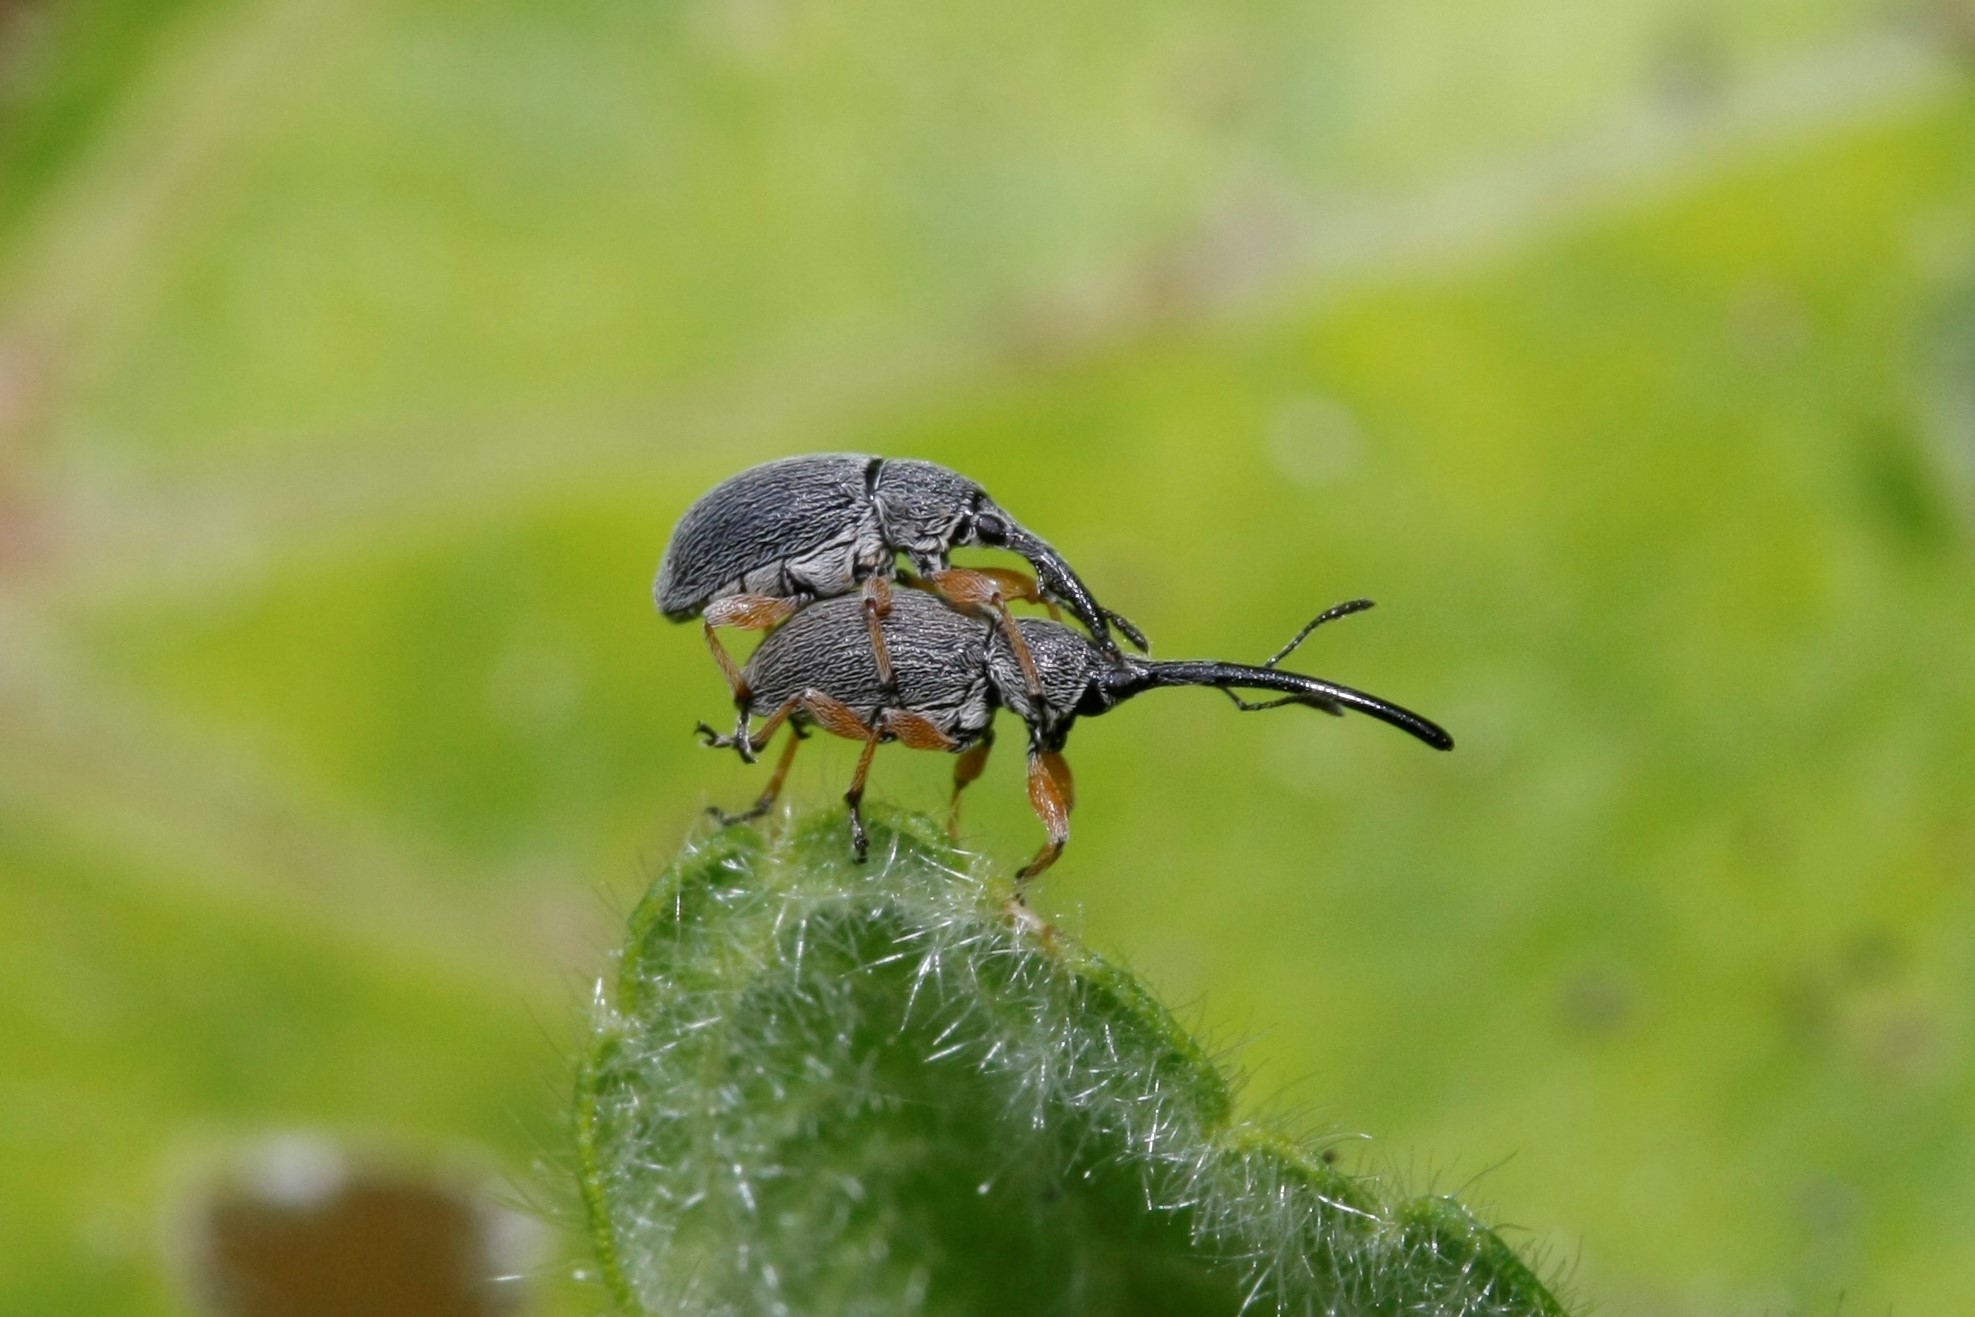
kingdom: Animalia
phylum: Arthropoda
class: Insecta
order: Coleoptera
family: Brentidae
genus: Rhopalapion
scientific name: Rhopalapion longirostre
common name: Hollyhock weevil
